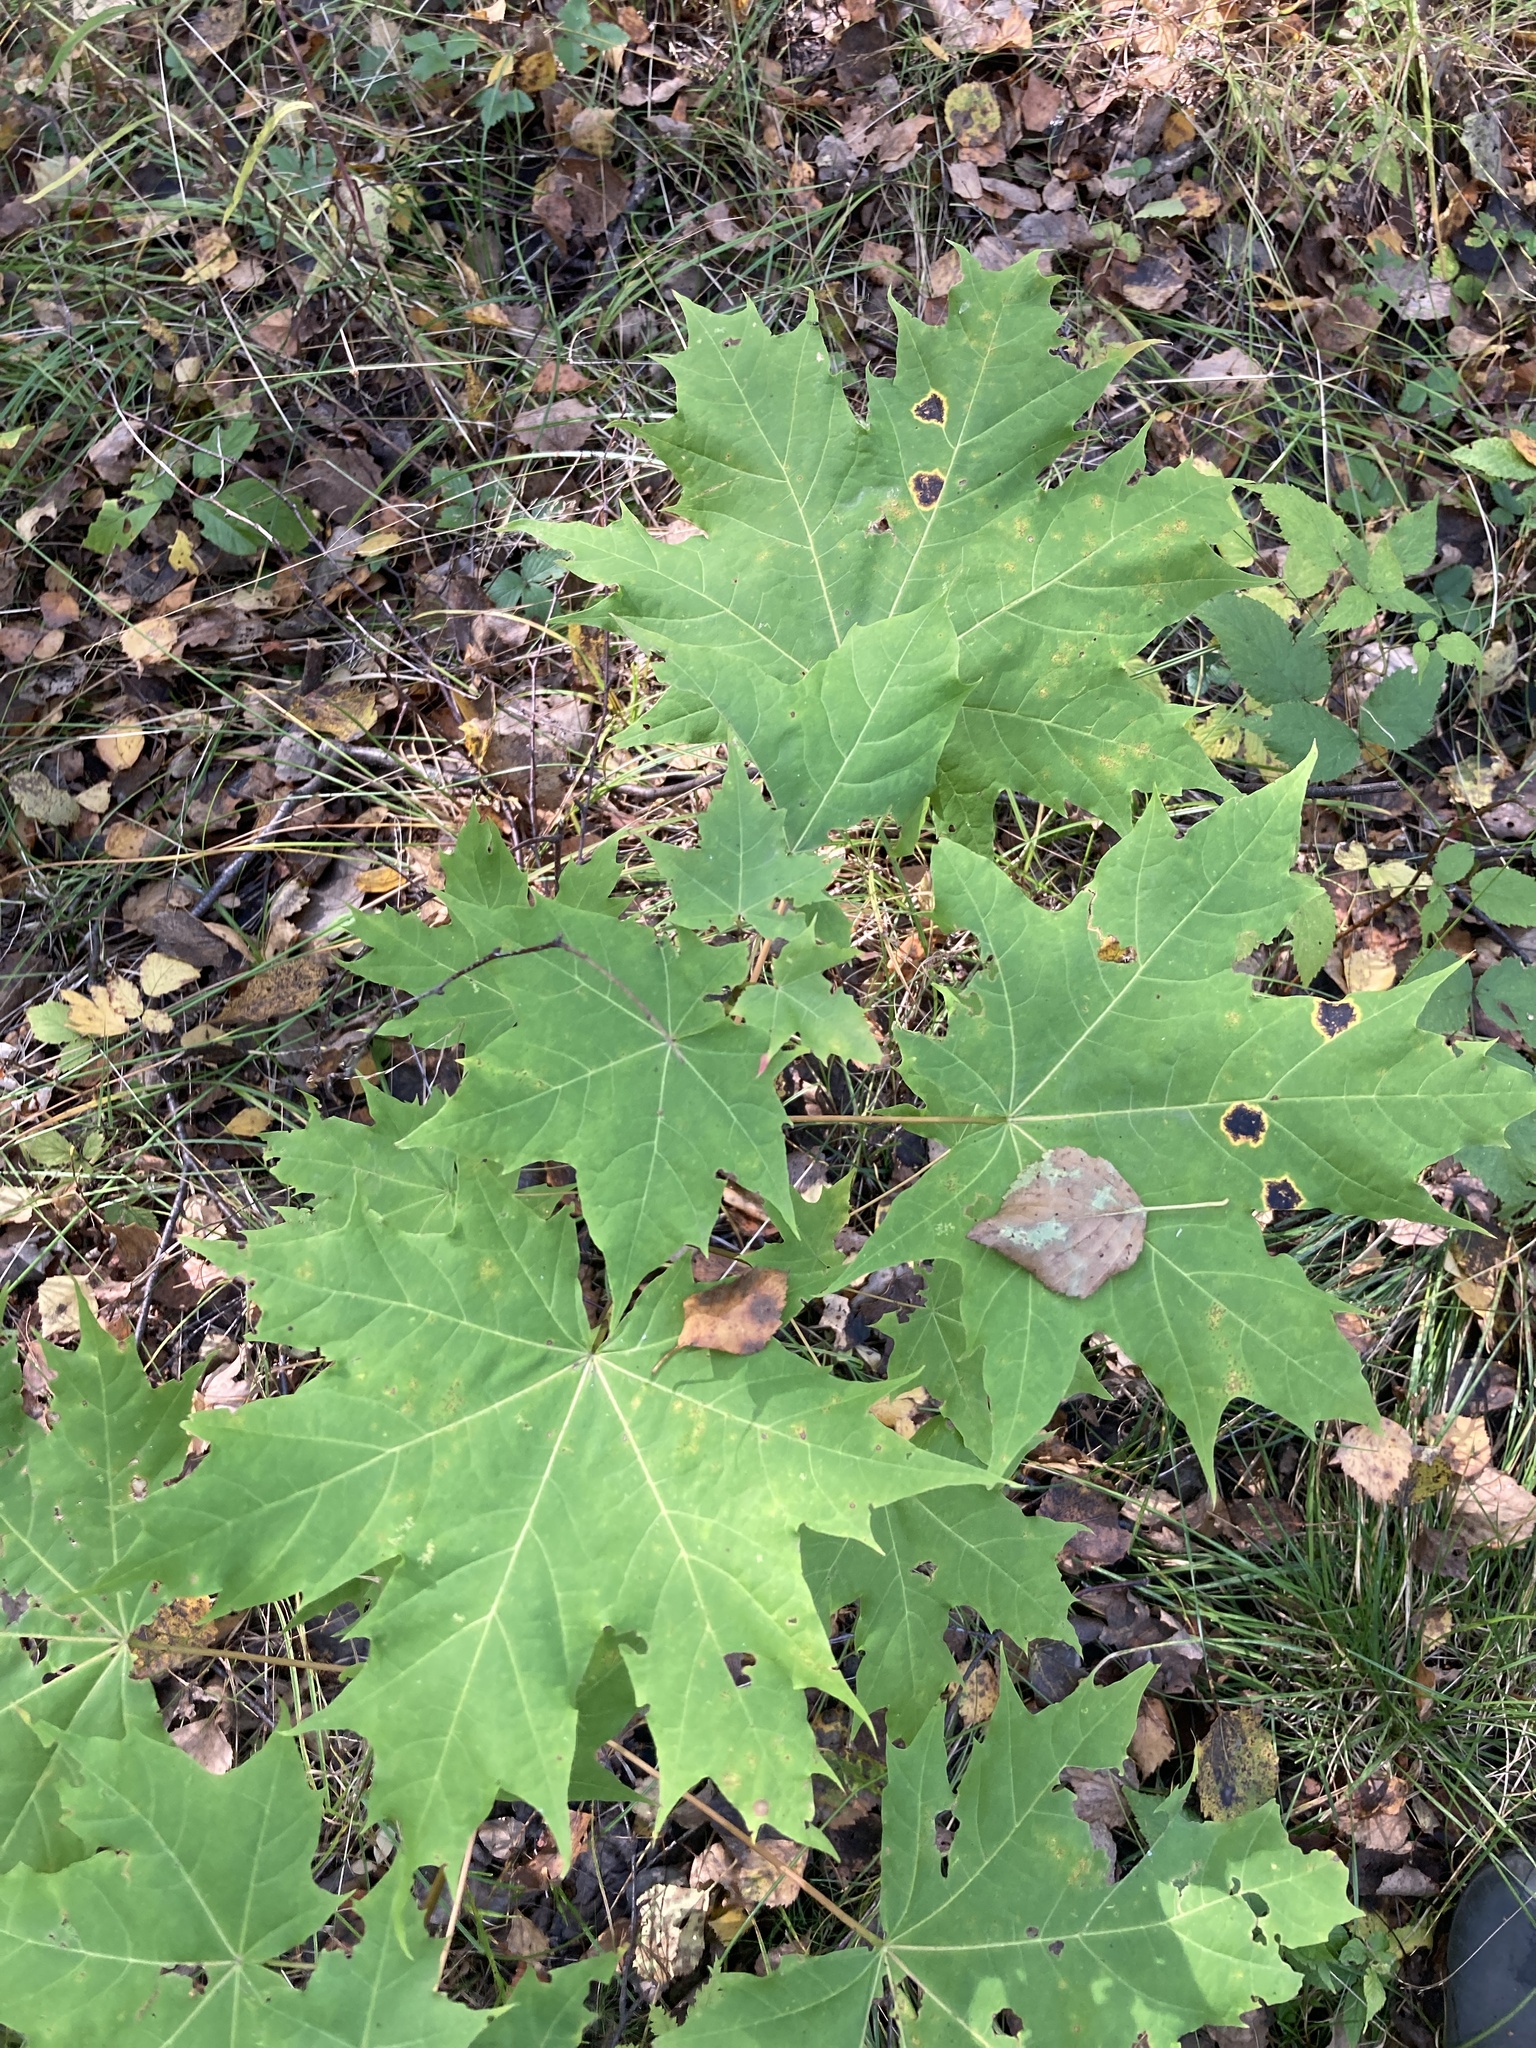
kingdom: Plantae
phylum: Tracheophyta
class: Magnoliopsida
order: Sapindales
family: Sapindaceae
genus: Acer
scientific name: Acer platanoides
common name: Norway maple
